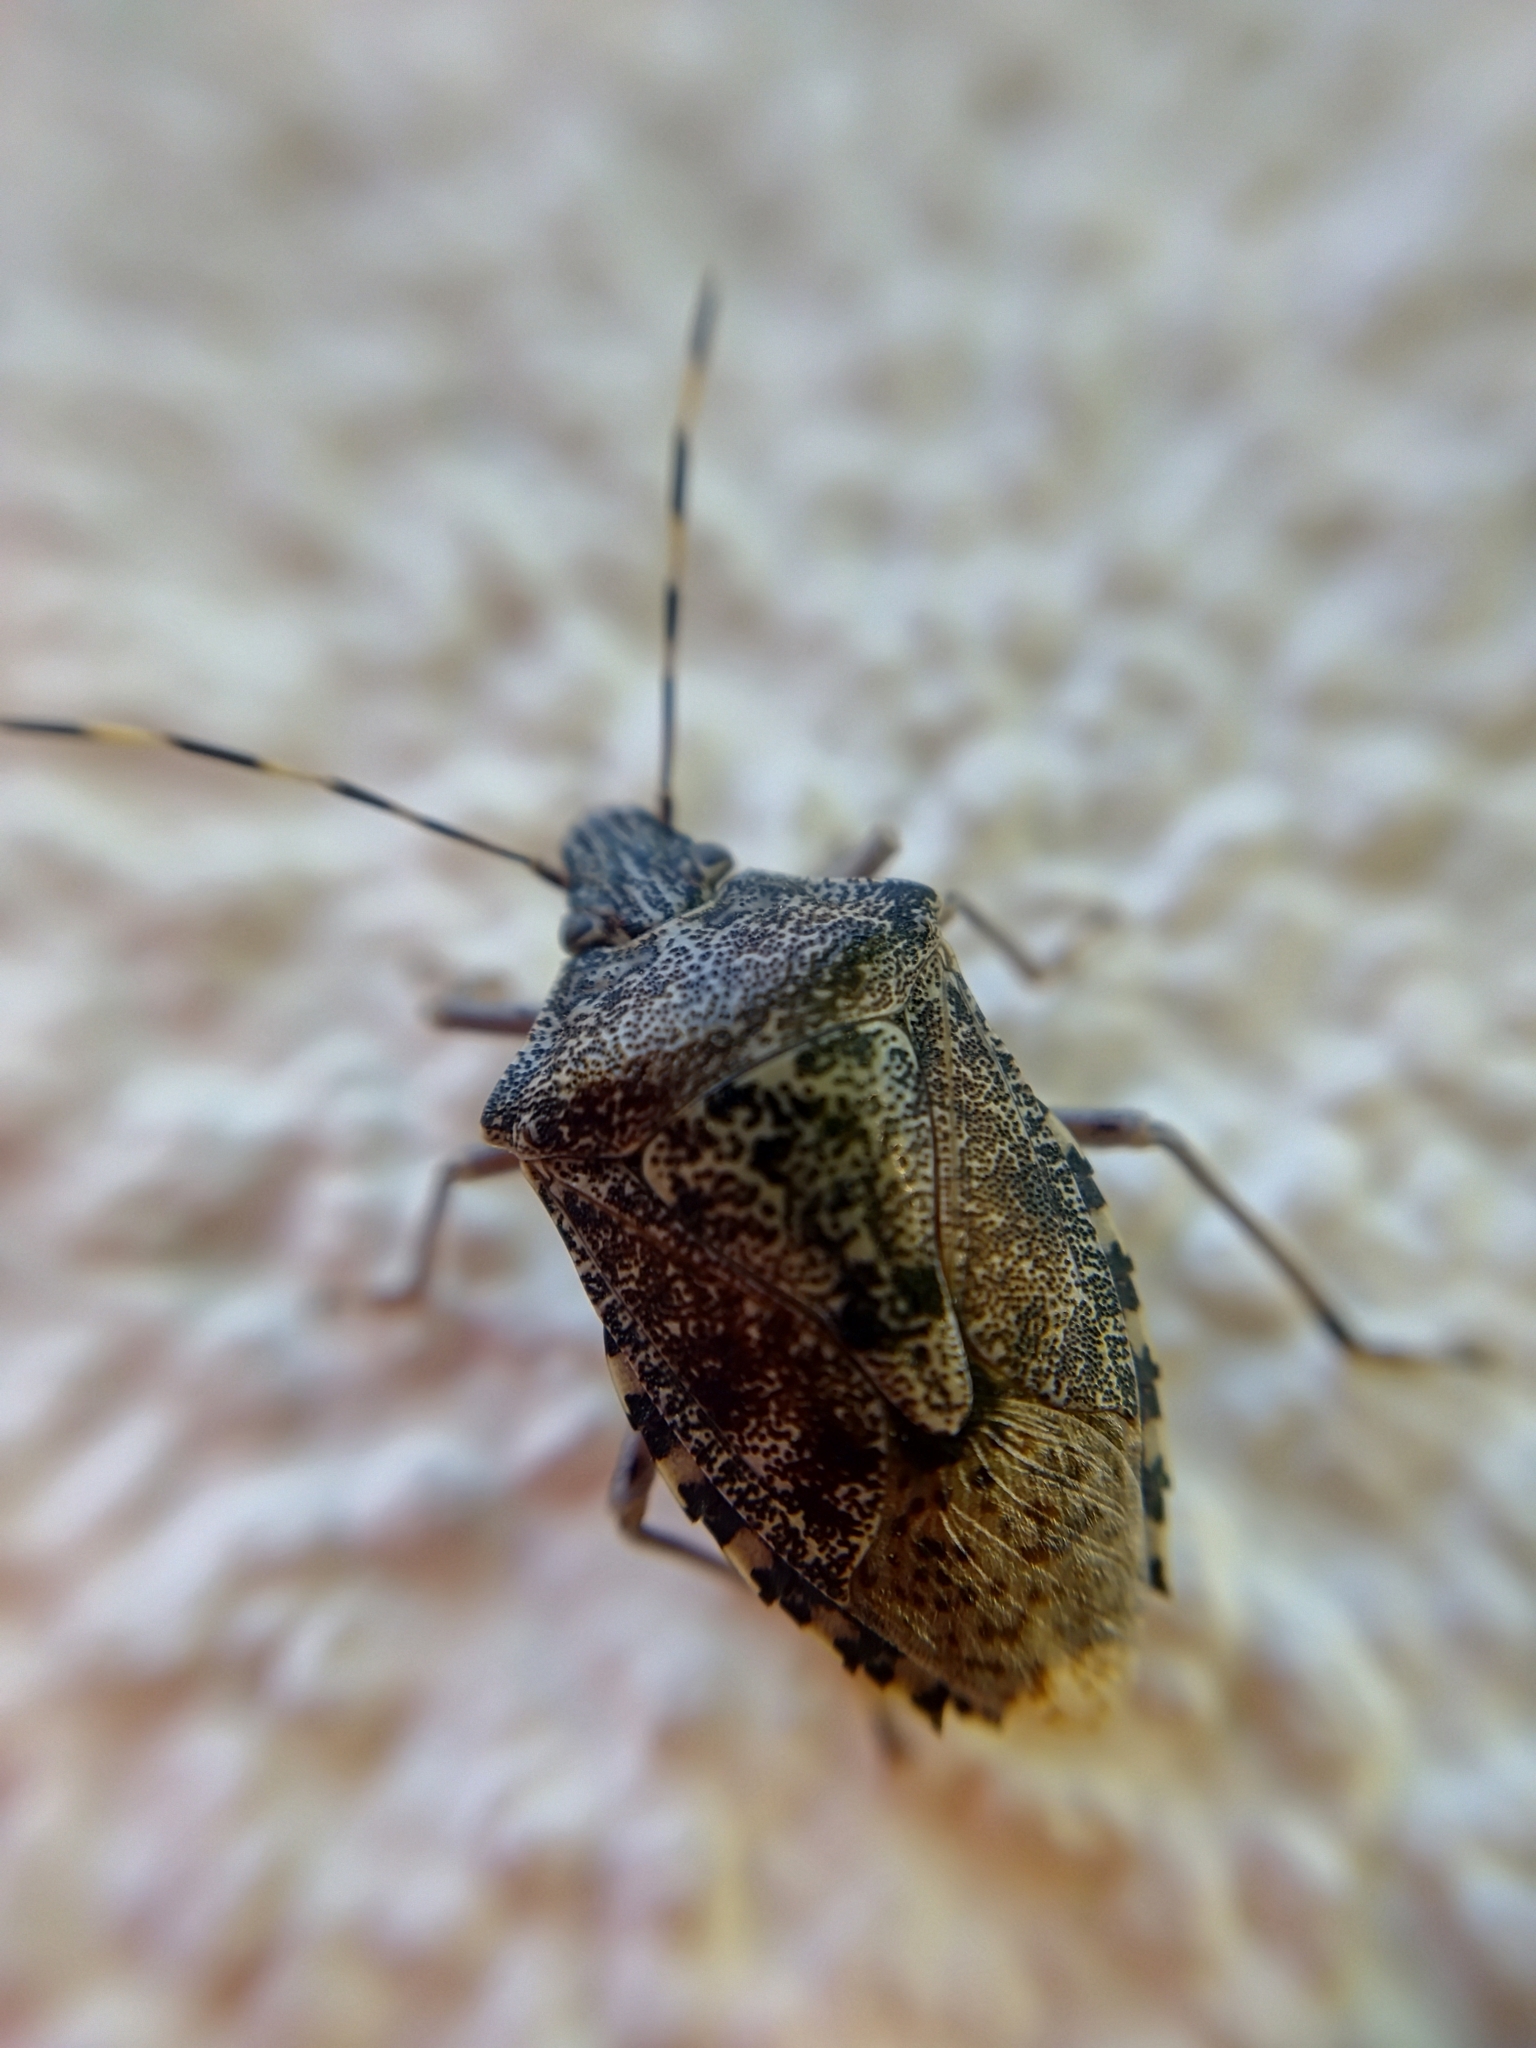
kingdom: Animalia
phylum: Arthropoda
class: Insecta
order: Hemiptera
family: Pentatomidae
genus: Rhaphigaster
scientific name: Rhaphigaster nebulosa
